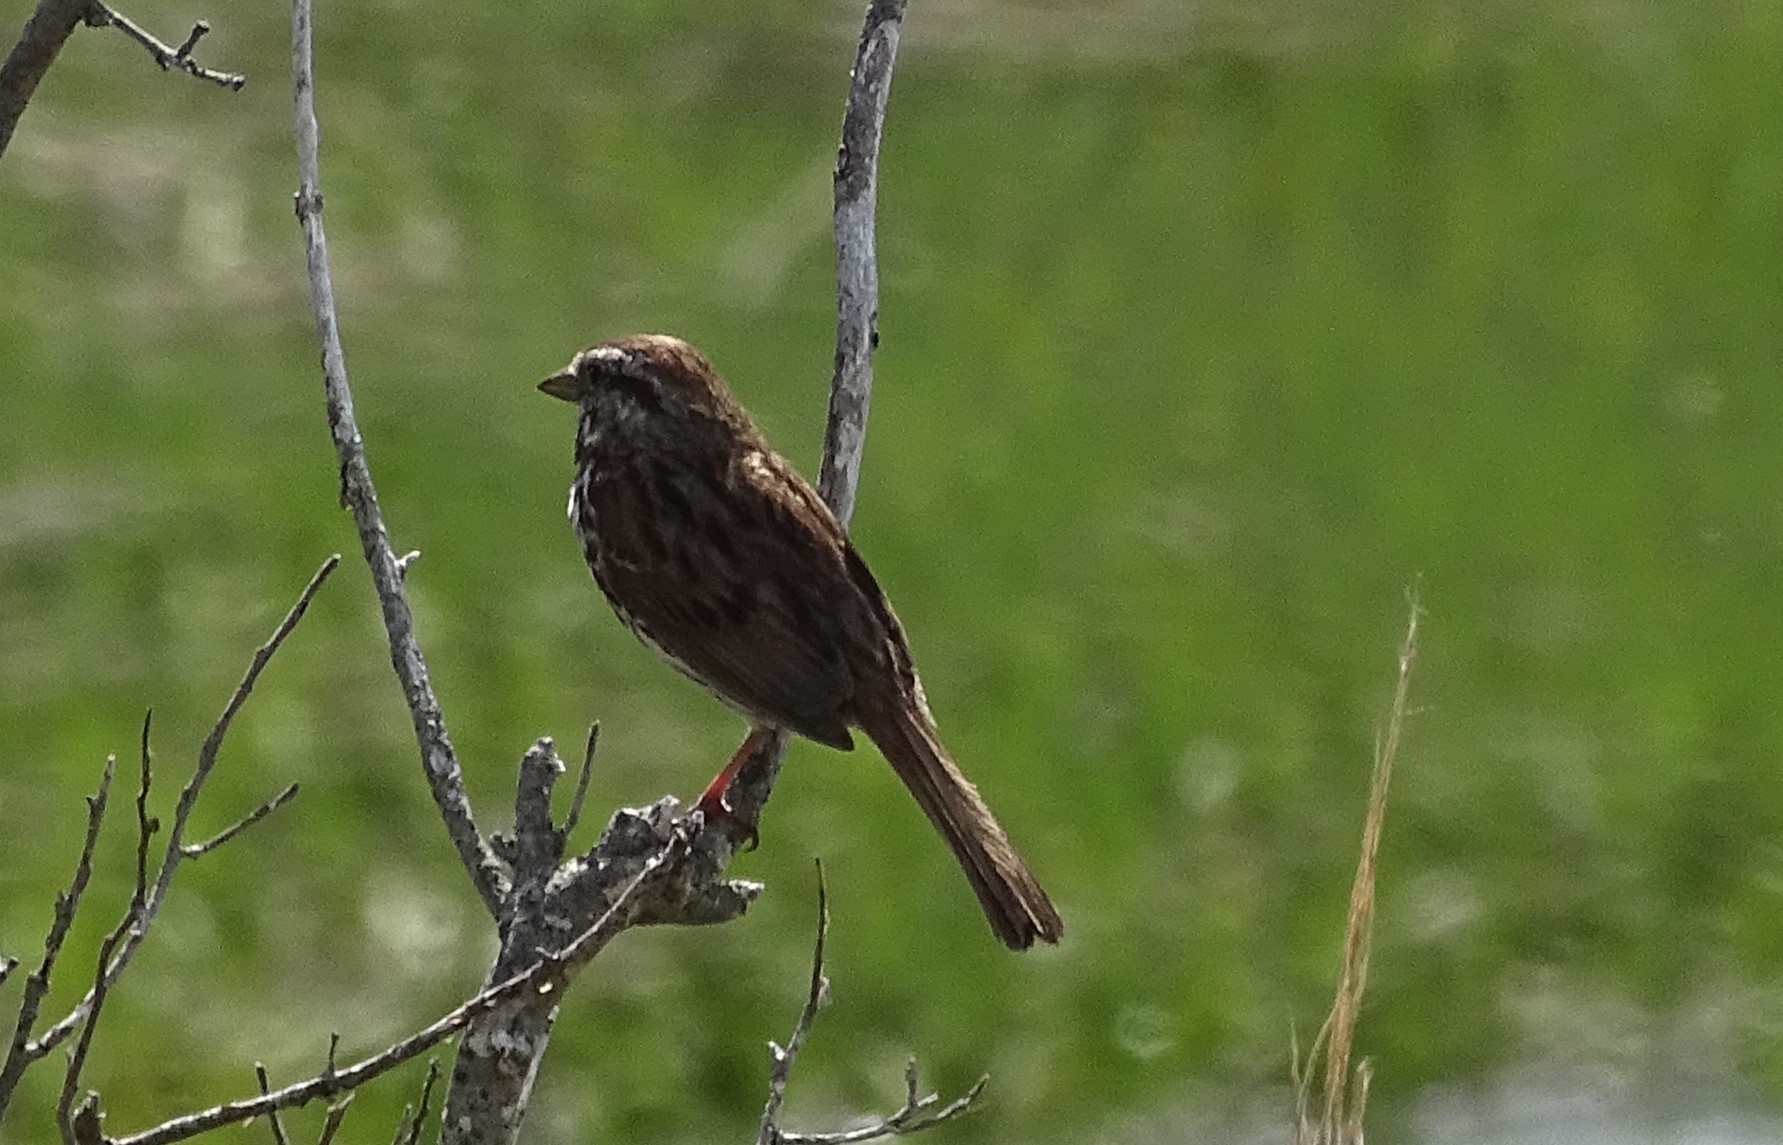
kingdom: Animalia
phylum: Chordata
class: Aves
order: Passeriformes
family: Passerellidae
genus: Melospiza
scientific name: Melospiza melodia
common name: Song sparrow
